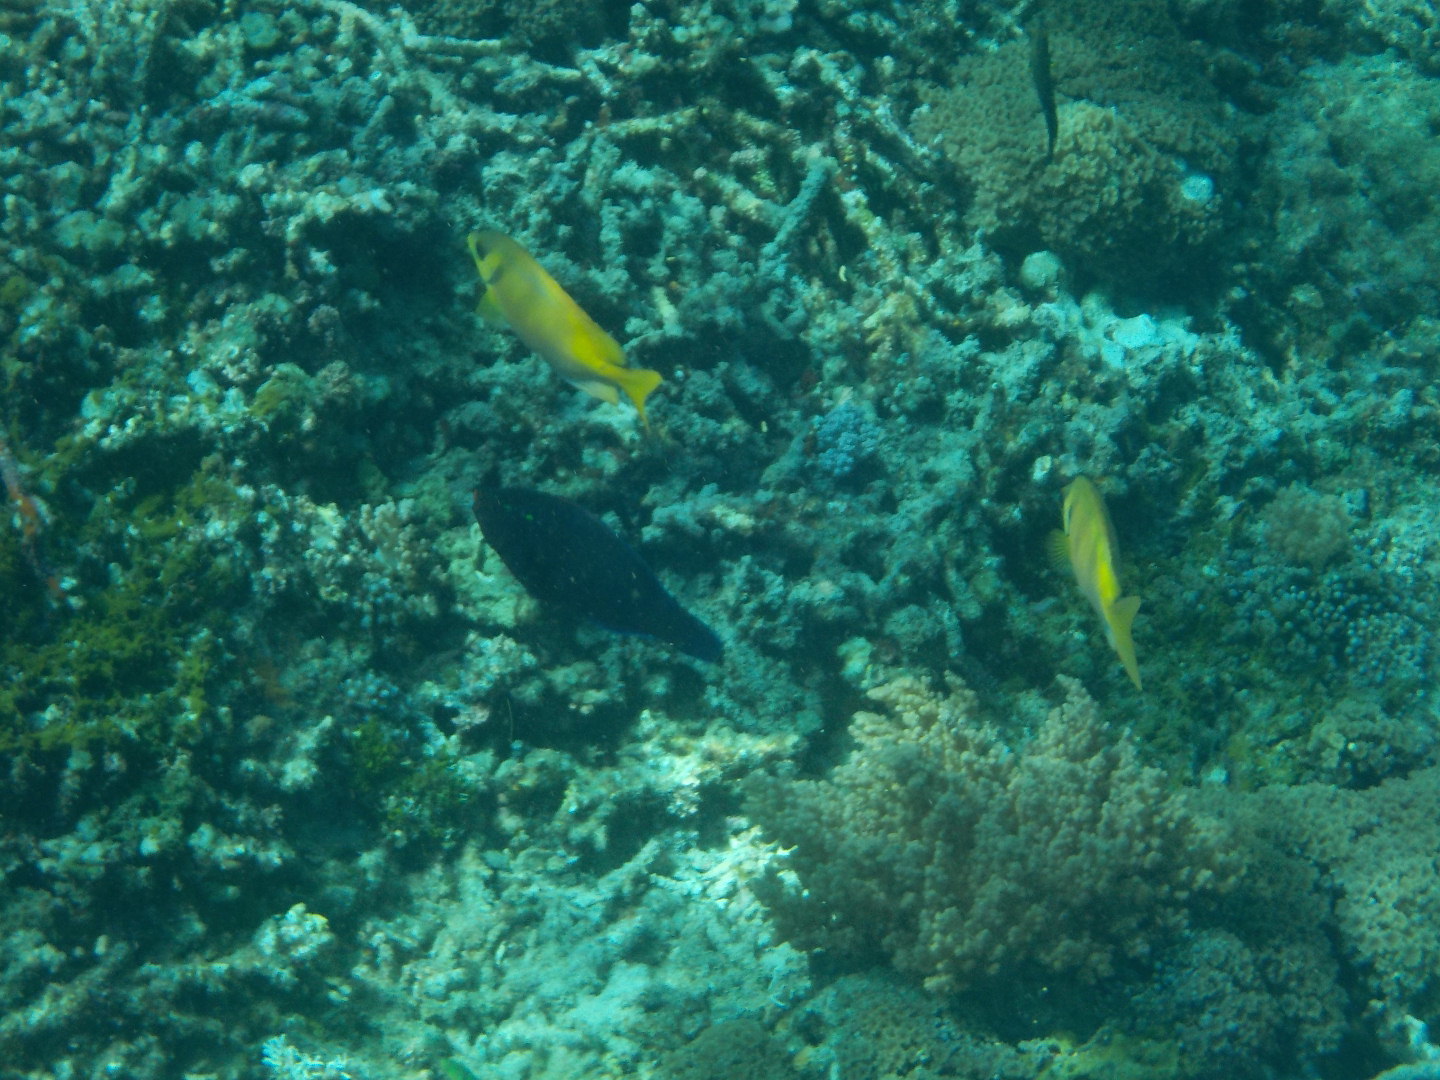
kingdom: Animalia
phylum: Chordata
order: Perciformes
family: Siganidae
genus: Siganus
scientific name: Siganus virgatus
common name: Barhead spinefoot
